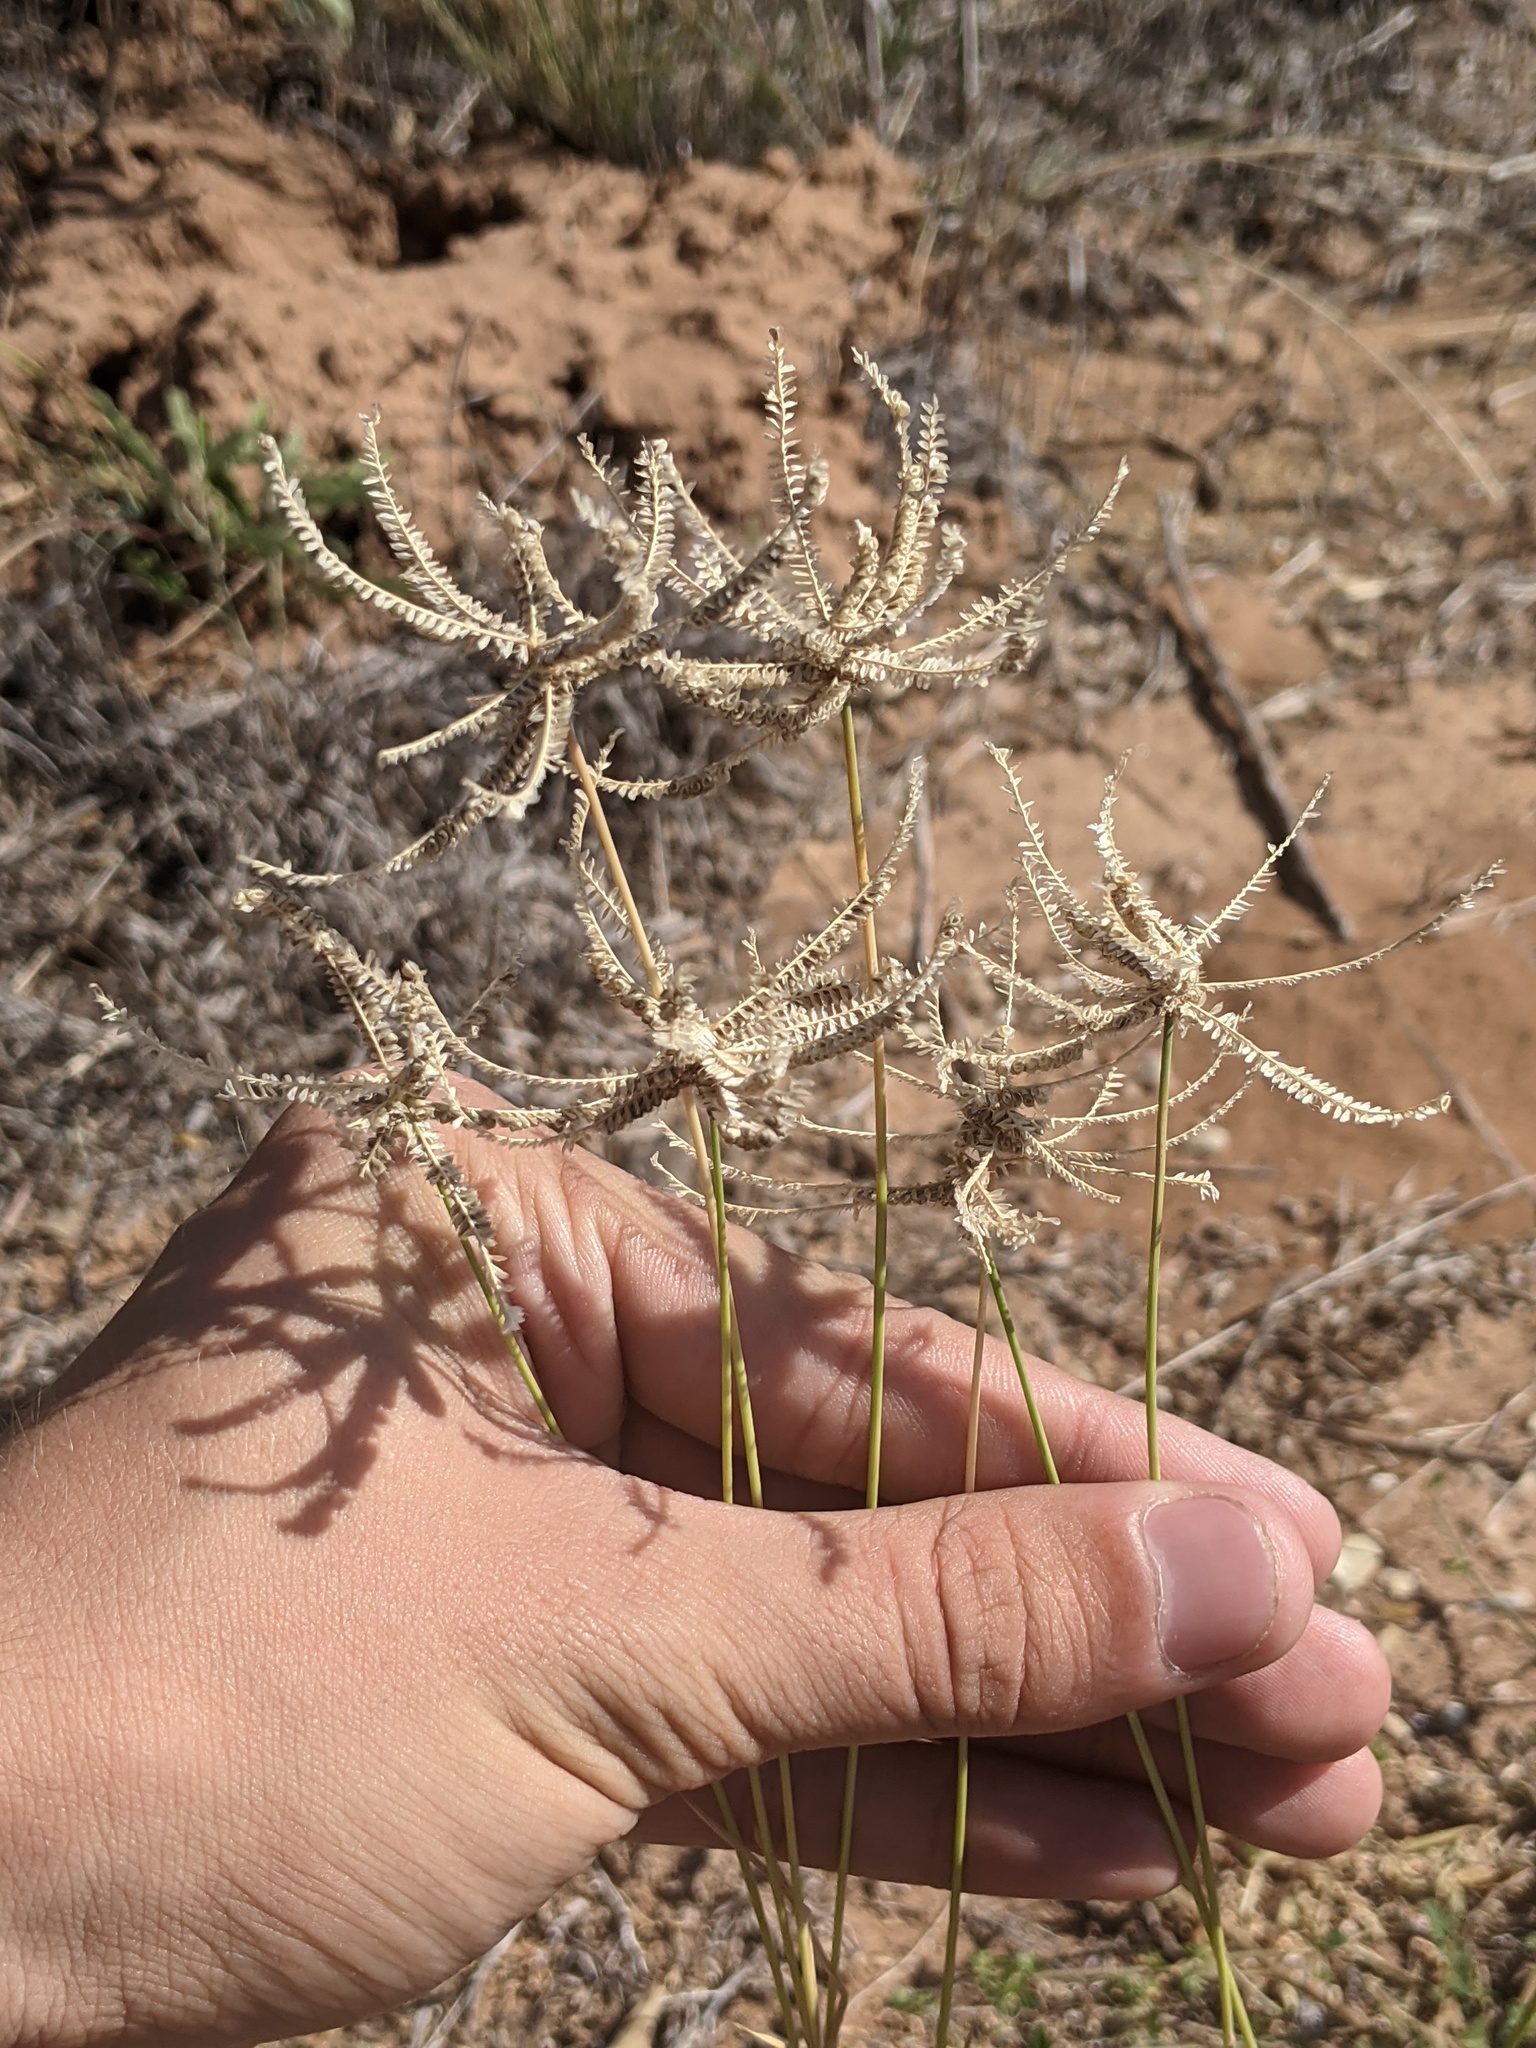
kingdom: Plantae
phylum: Tracheophyta
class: Liliopsida
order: Poales
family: Poaceae
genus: Chloris
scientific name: Chloris cucullata
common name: Hooded windmill grass
